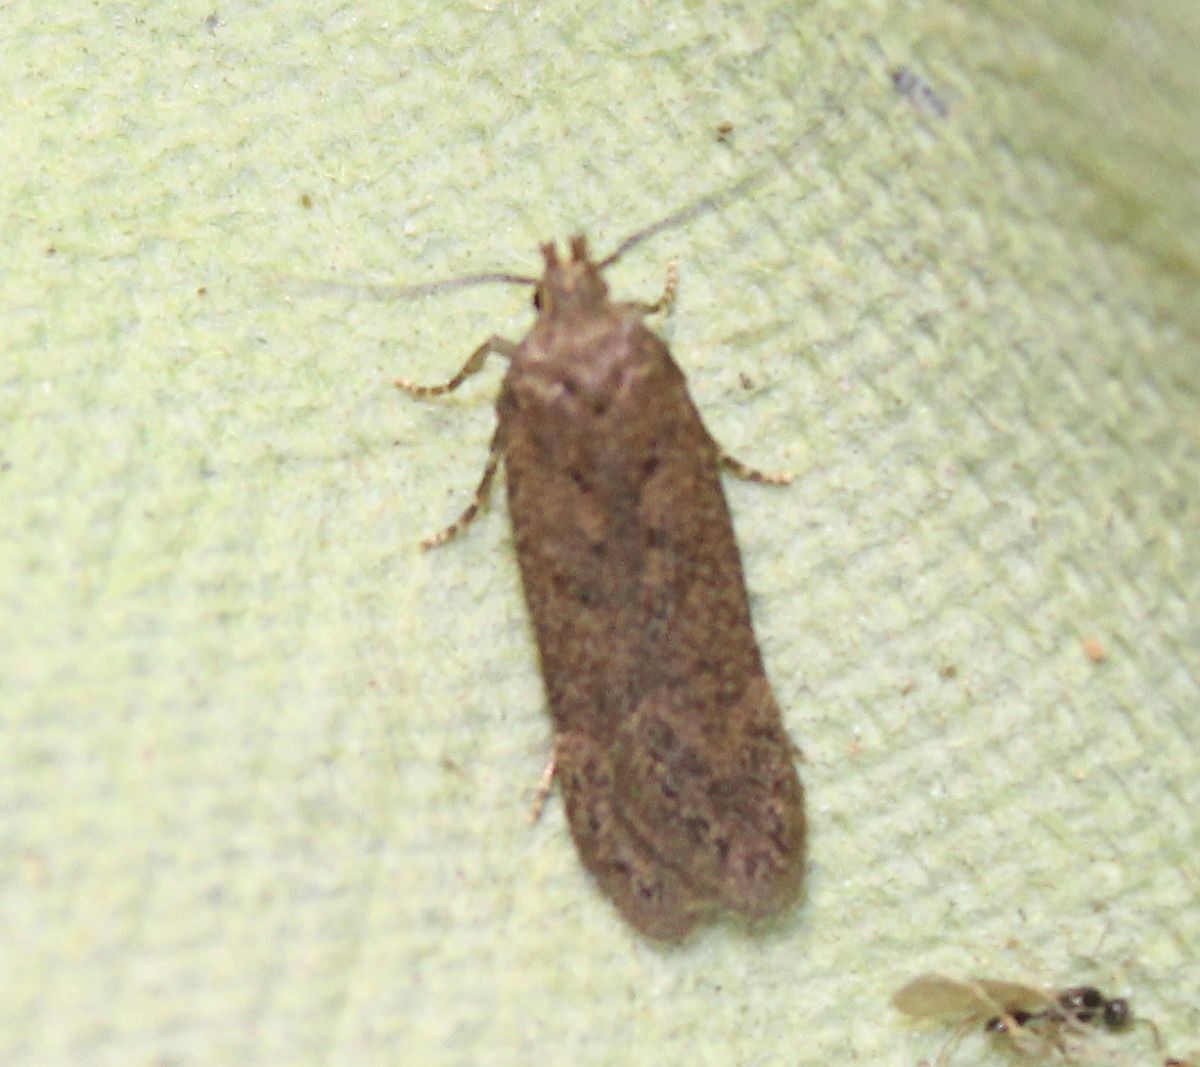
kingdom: Animalia
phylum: Arthropoda
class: Insecta
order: Lepidoptera
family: Gelechiidae
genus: Bryotropha
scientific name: Bryotropha terrella
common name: Cinerous groundling
